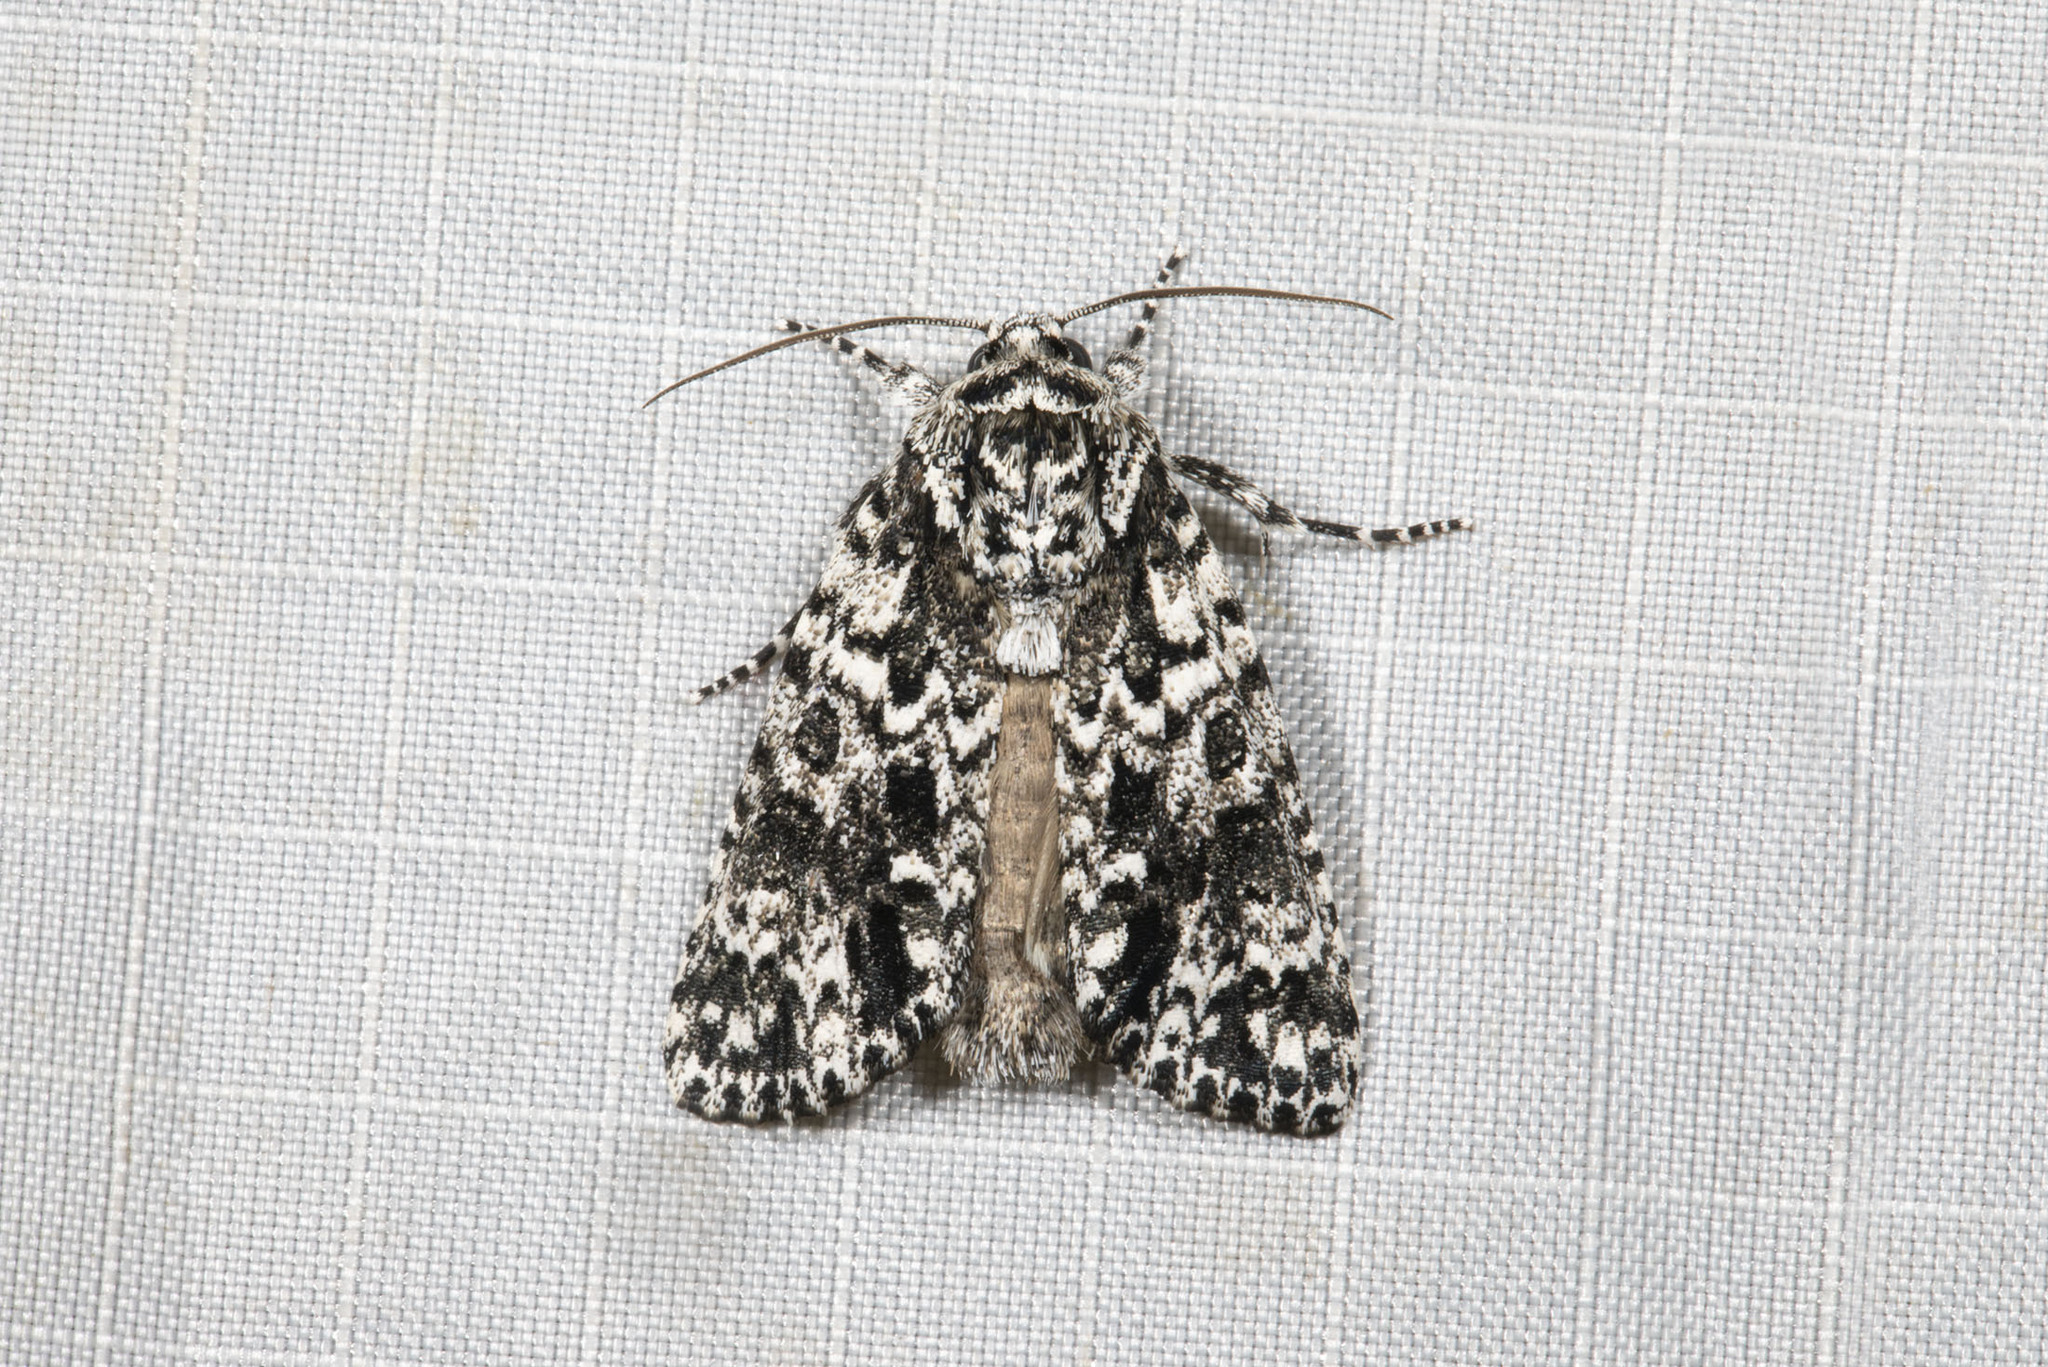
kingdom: Animalia
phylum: Arthropoda
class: Insecta
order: Lepidoptera
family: Noctuidae
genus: Acronicta
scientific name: Acronicta noctivaga
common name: Night-wandering dagger
